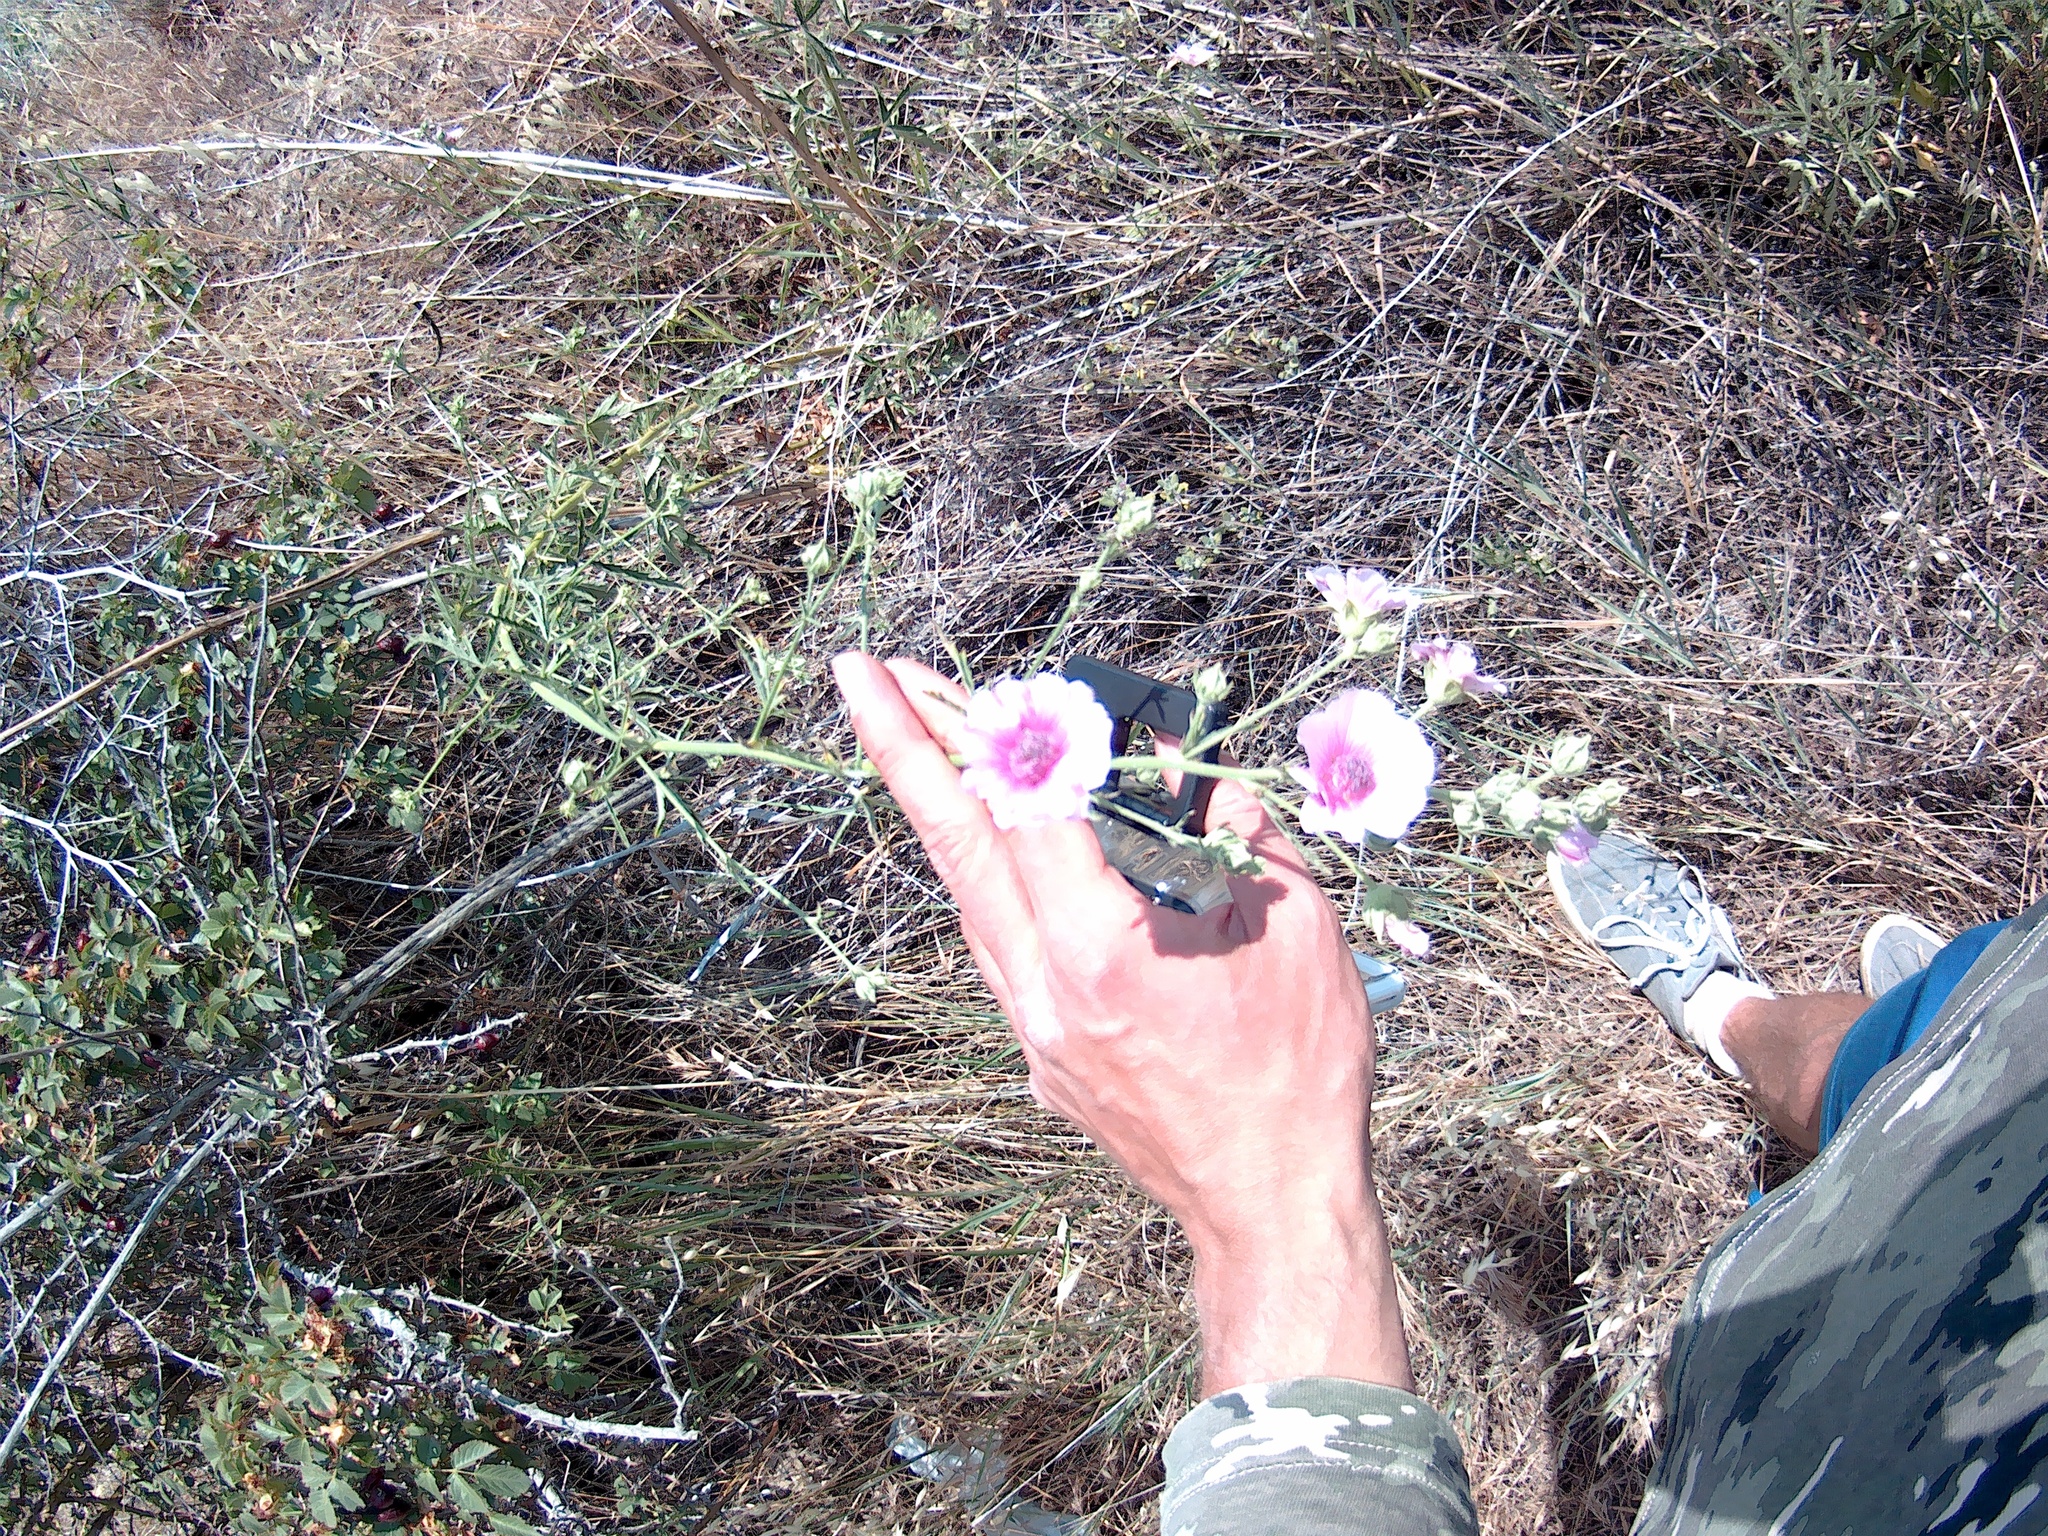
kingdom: Plantae
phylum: Tracheophyta
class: Magnoliopsida
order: Malvales
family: Malvaceae
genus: Althaea
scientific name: Althaea cannabina
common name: Palm-leaf marshmallow
